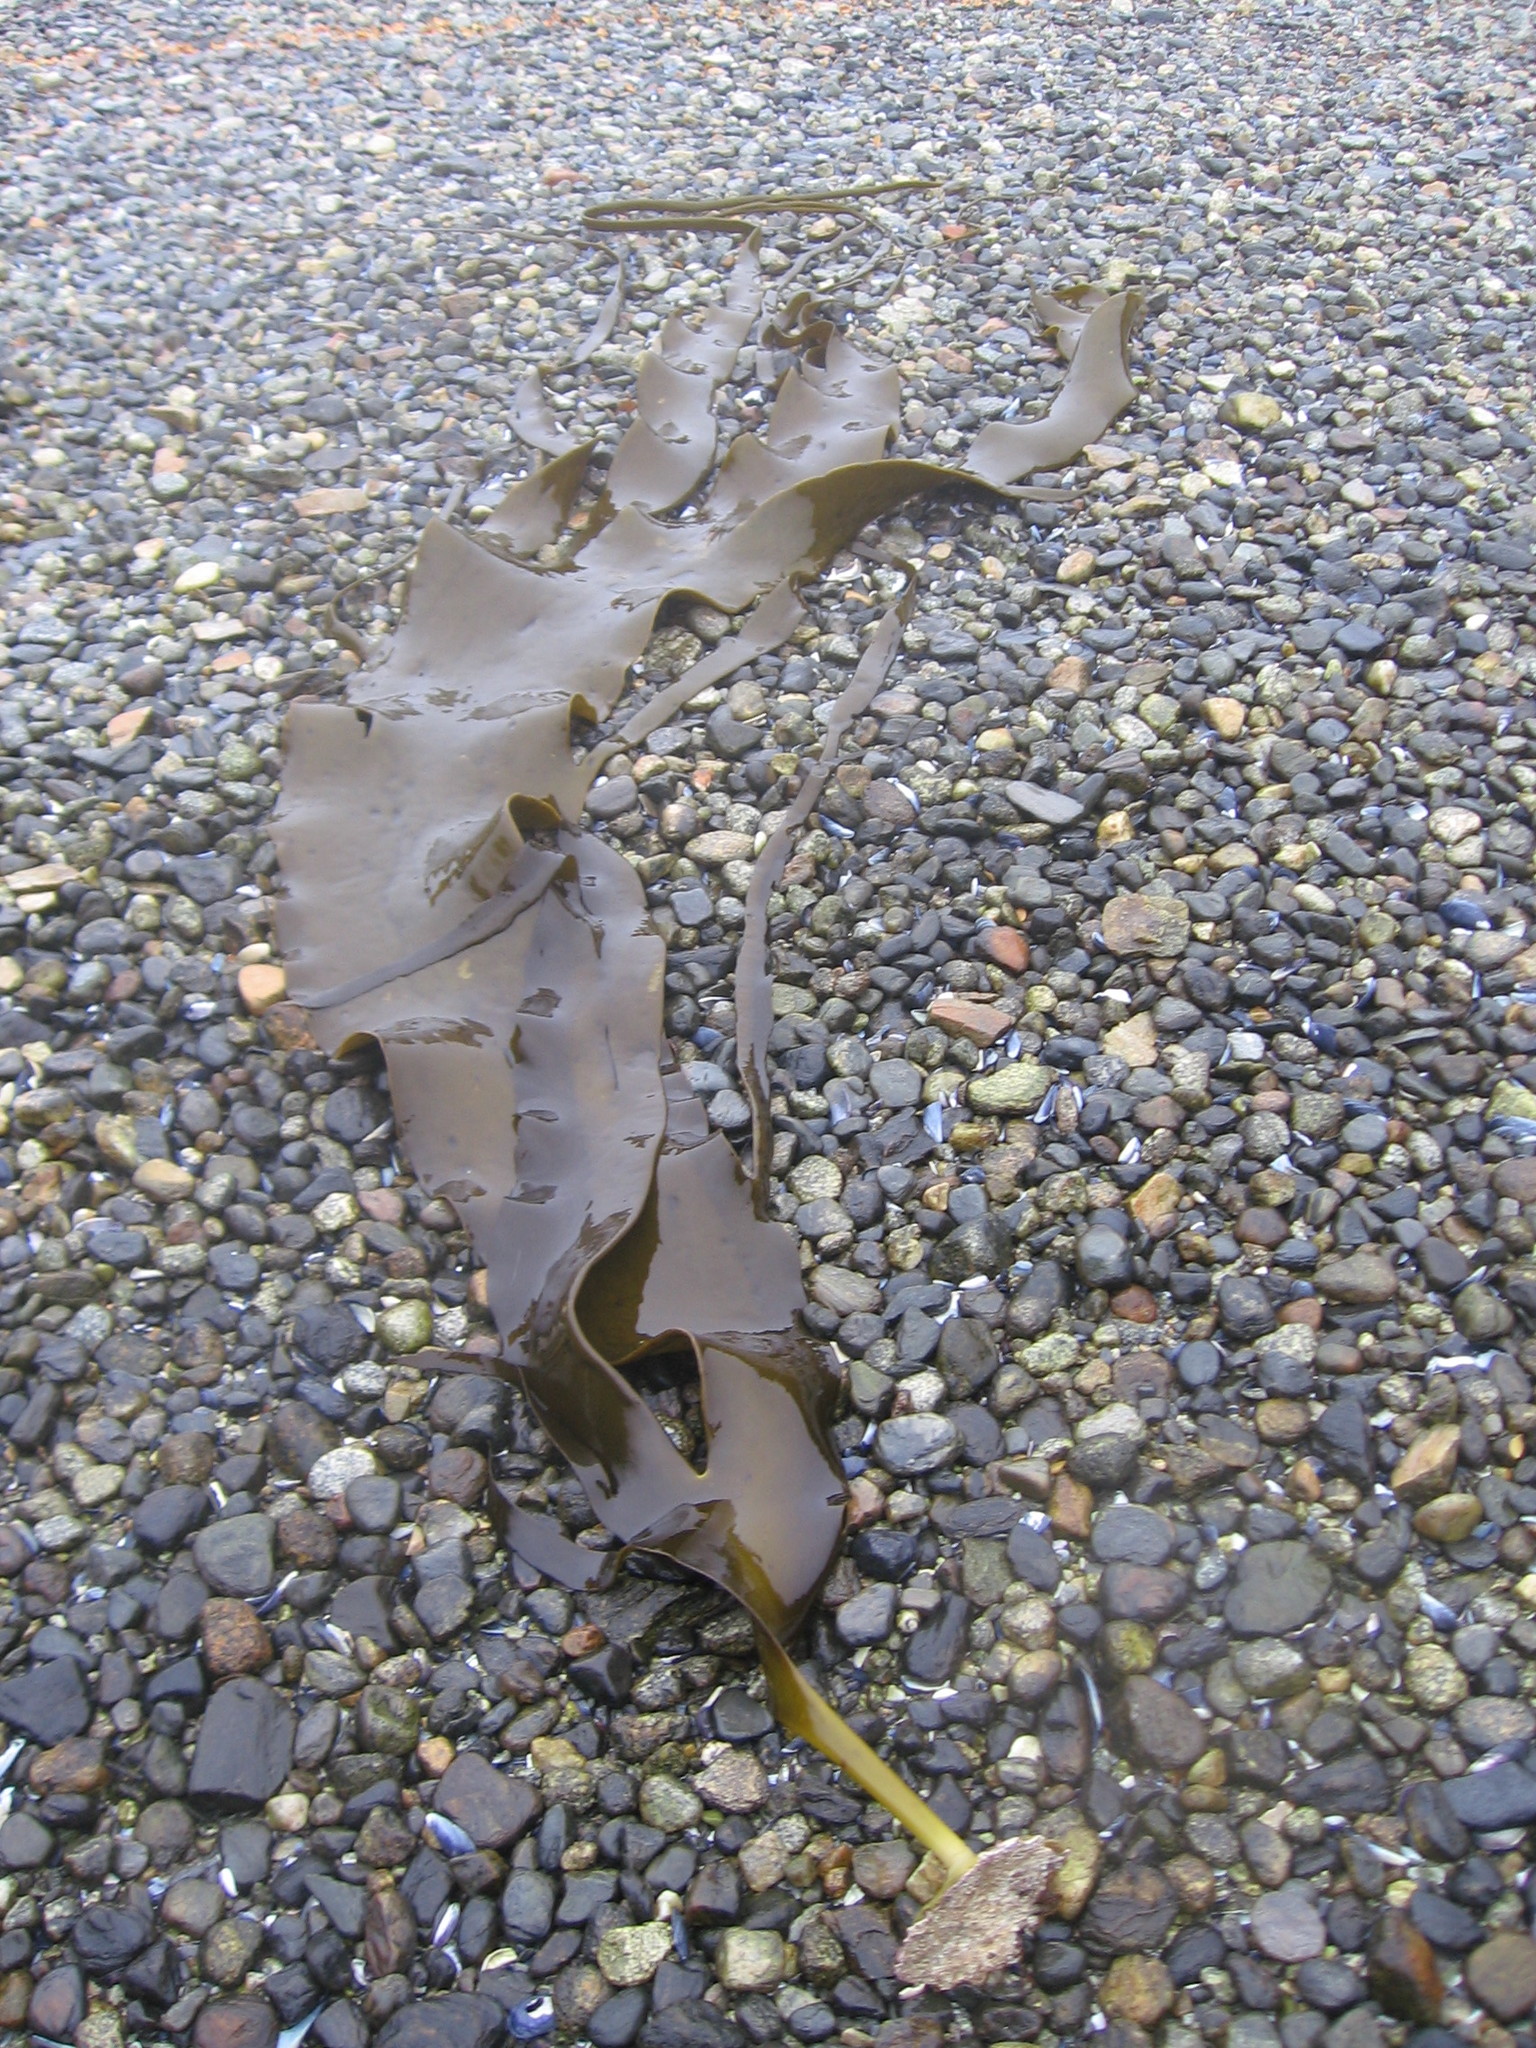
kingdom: Chromista
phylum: Ochrophyta
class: Phaeophyceae
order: Fucales
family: Durvillaeaceae
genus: Durvillaea
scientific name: Durvillaea antarctica
